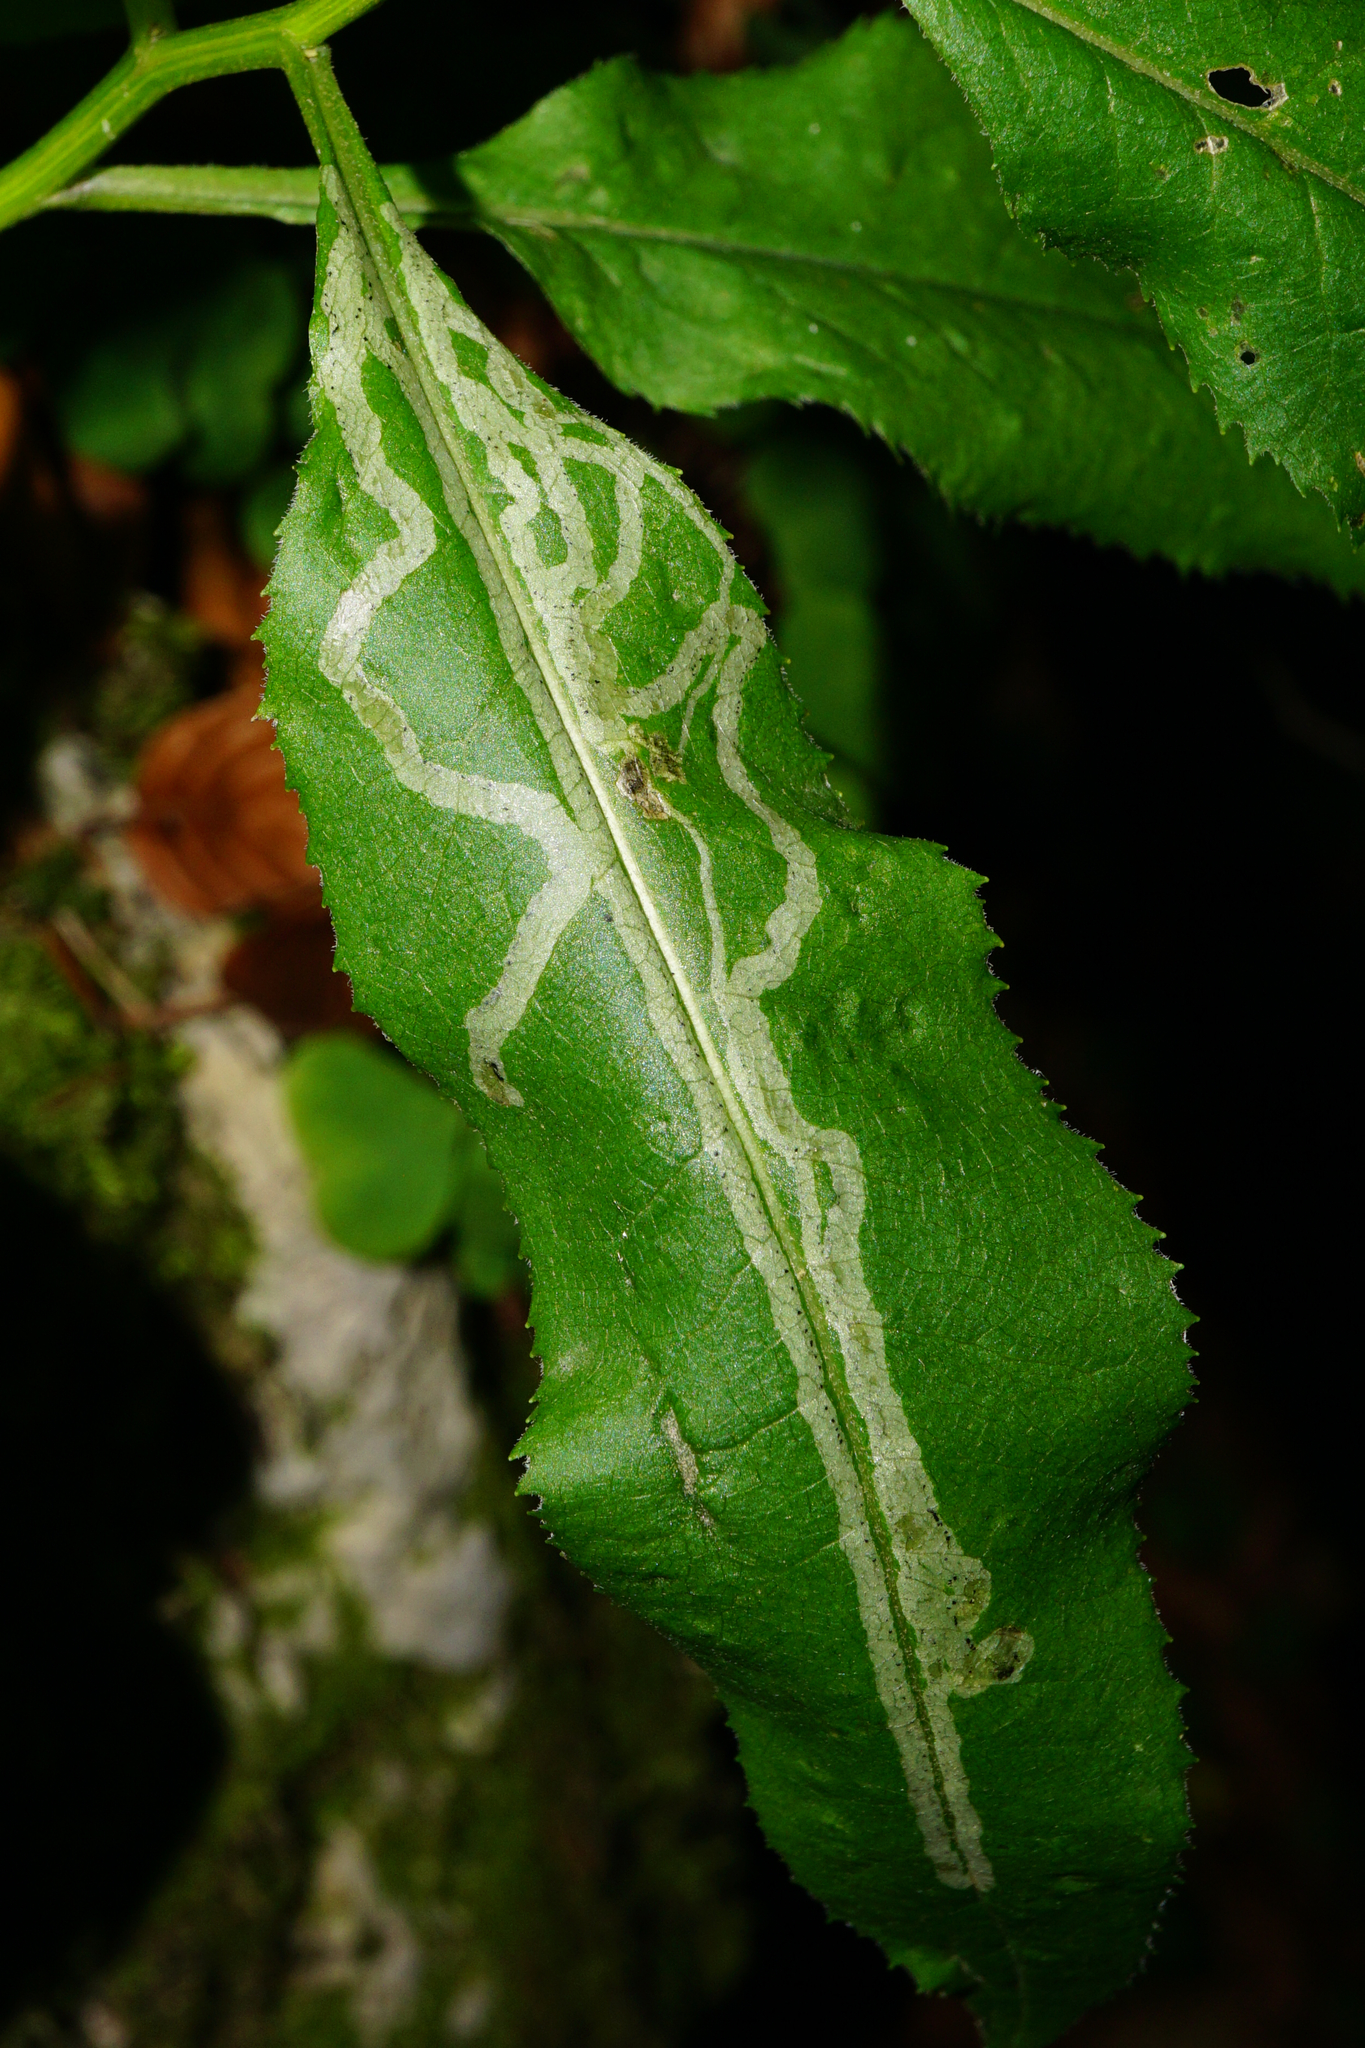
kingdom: Animalia
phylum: Arthropoda
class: Insecta
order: Diptera
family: Agromyzidae
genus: Phytomyza
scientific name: Phytomyza senecionis
